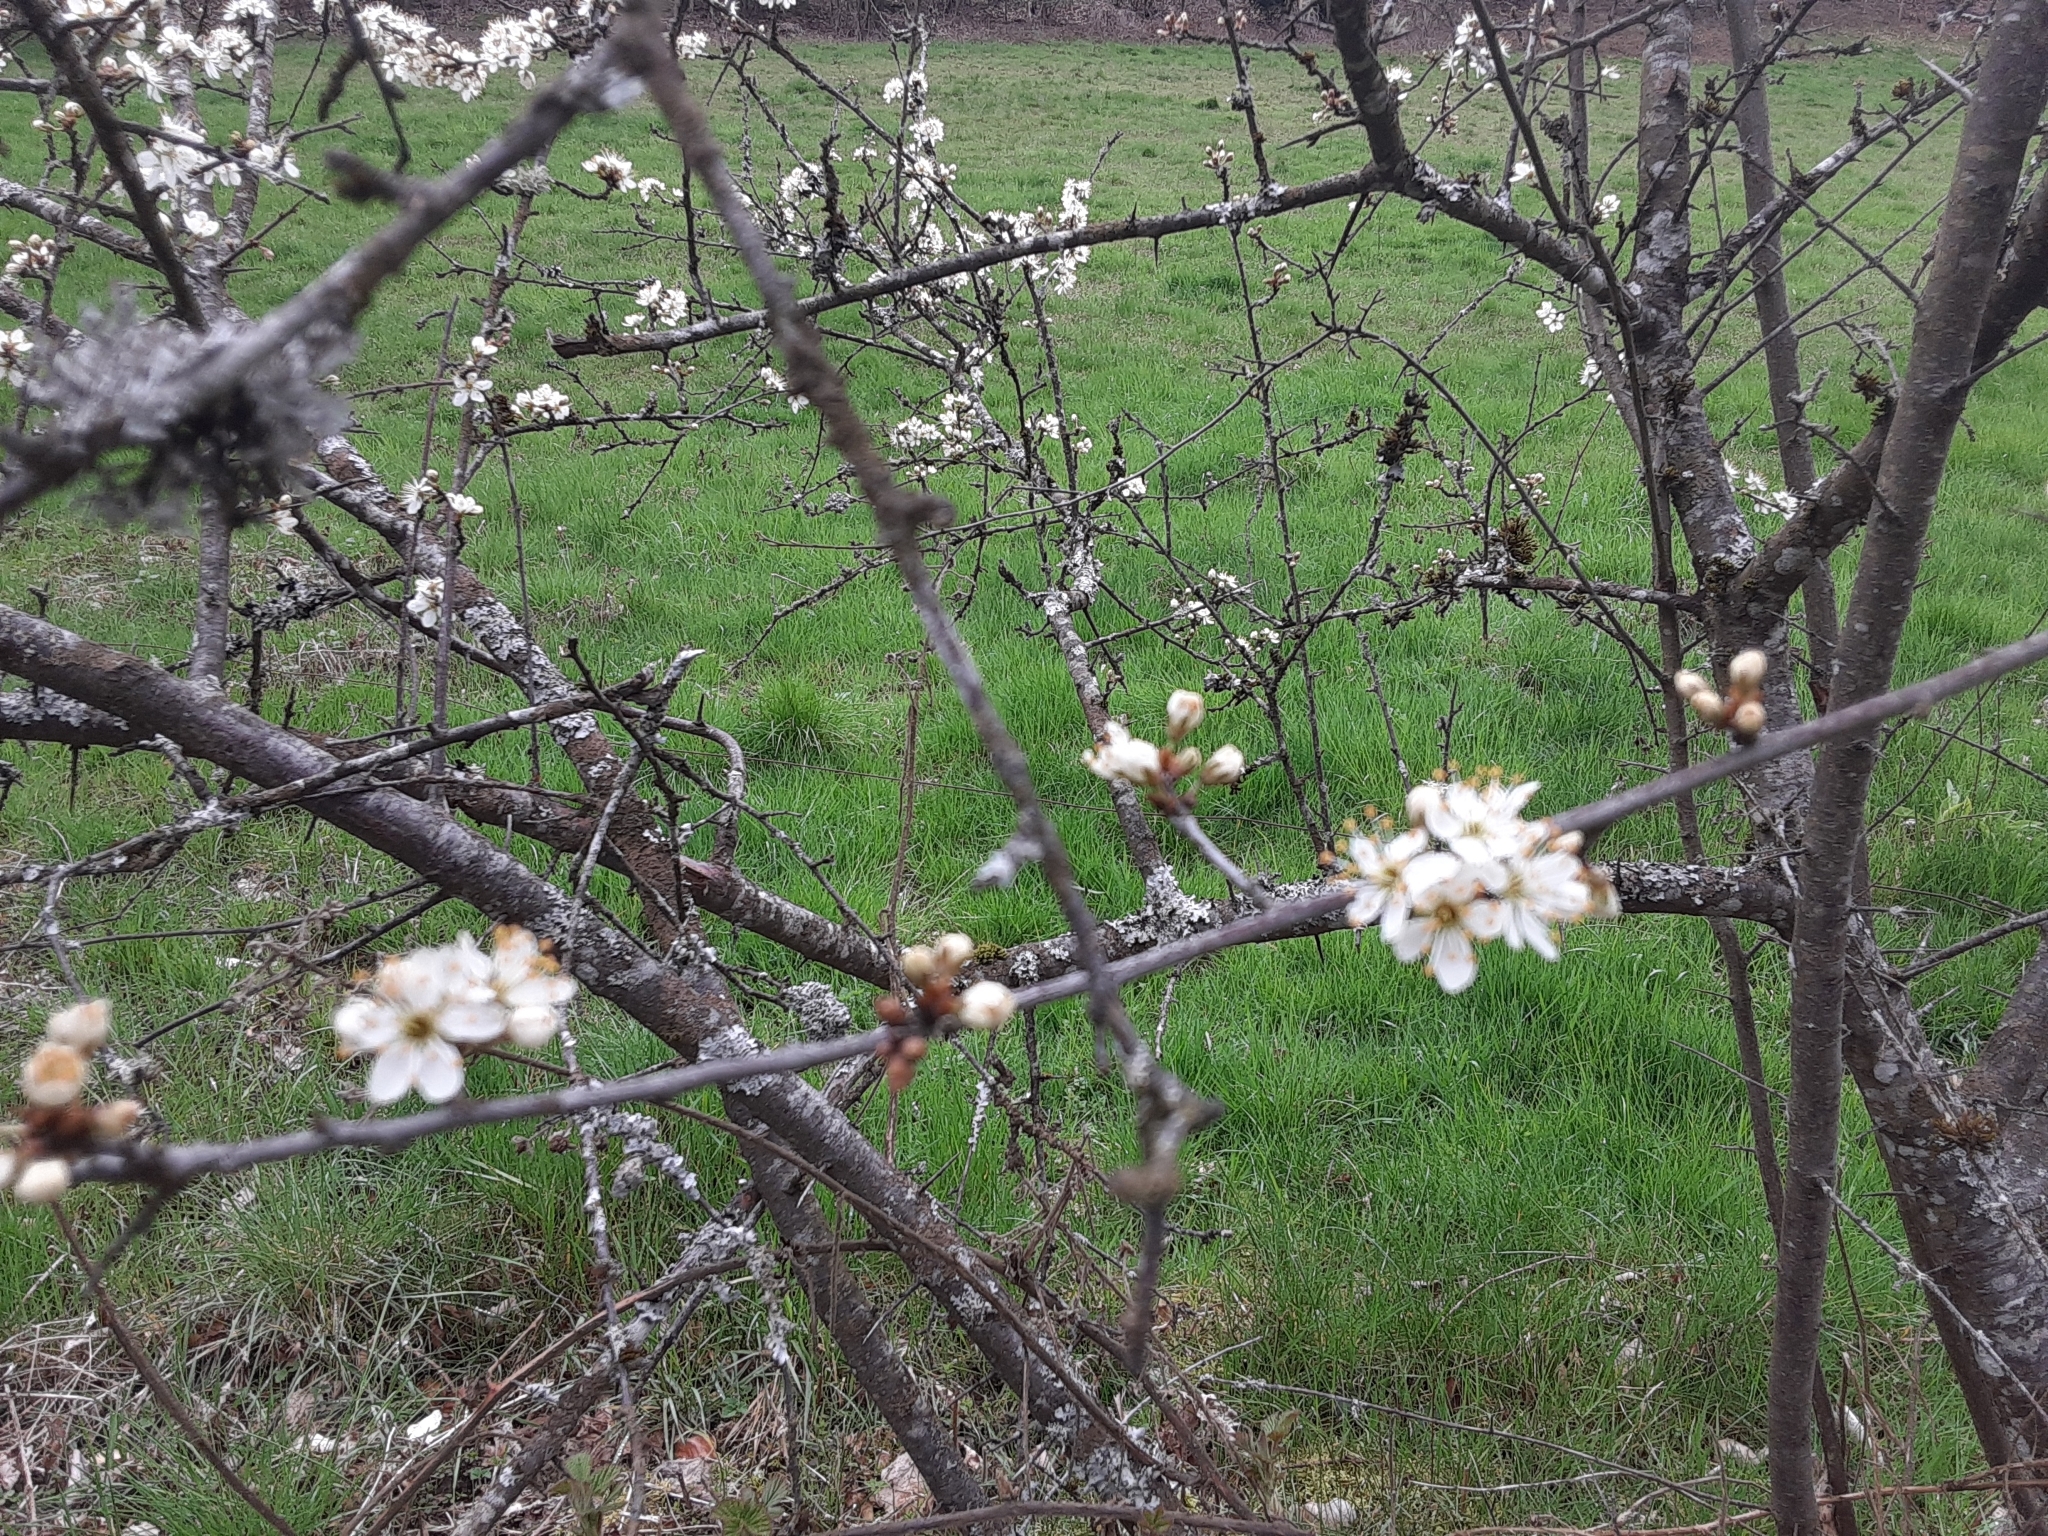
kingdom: Plantae
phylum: Tracheophyta
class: Magnoliopsida
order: Rosales
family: Rosaceae
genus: Prunus
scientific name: Prunus spinosa
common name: Blackthorn
